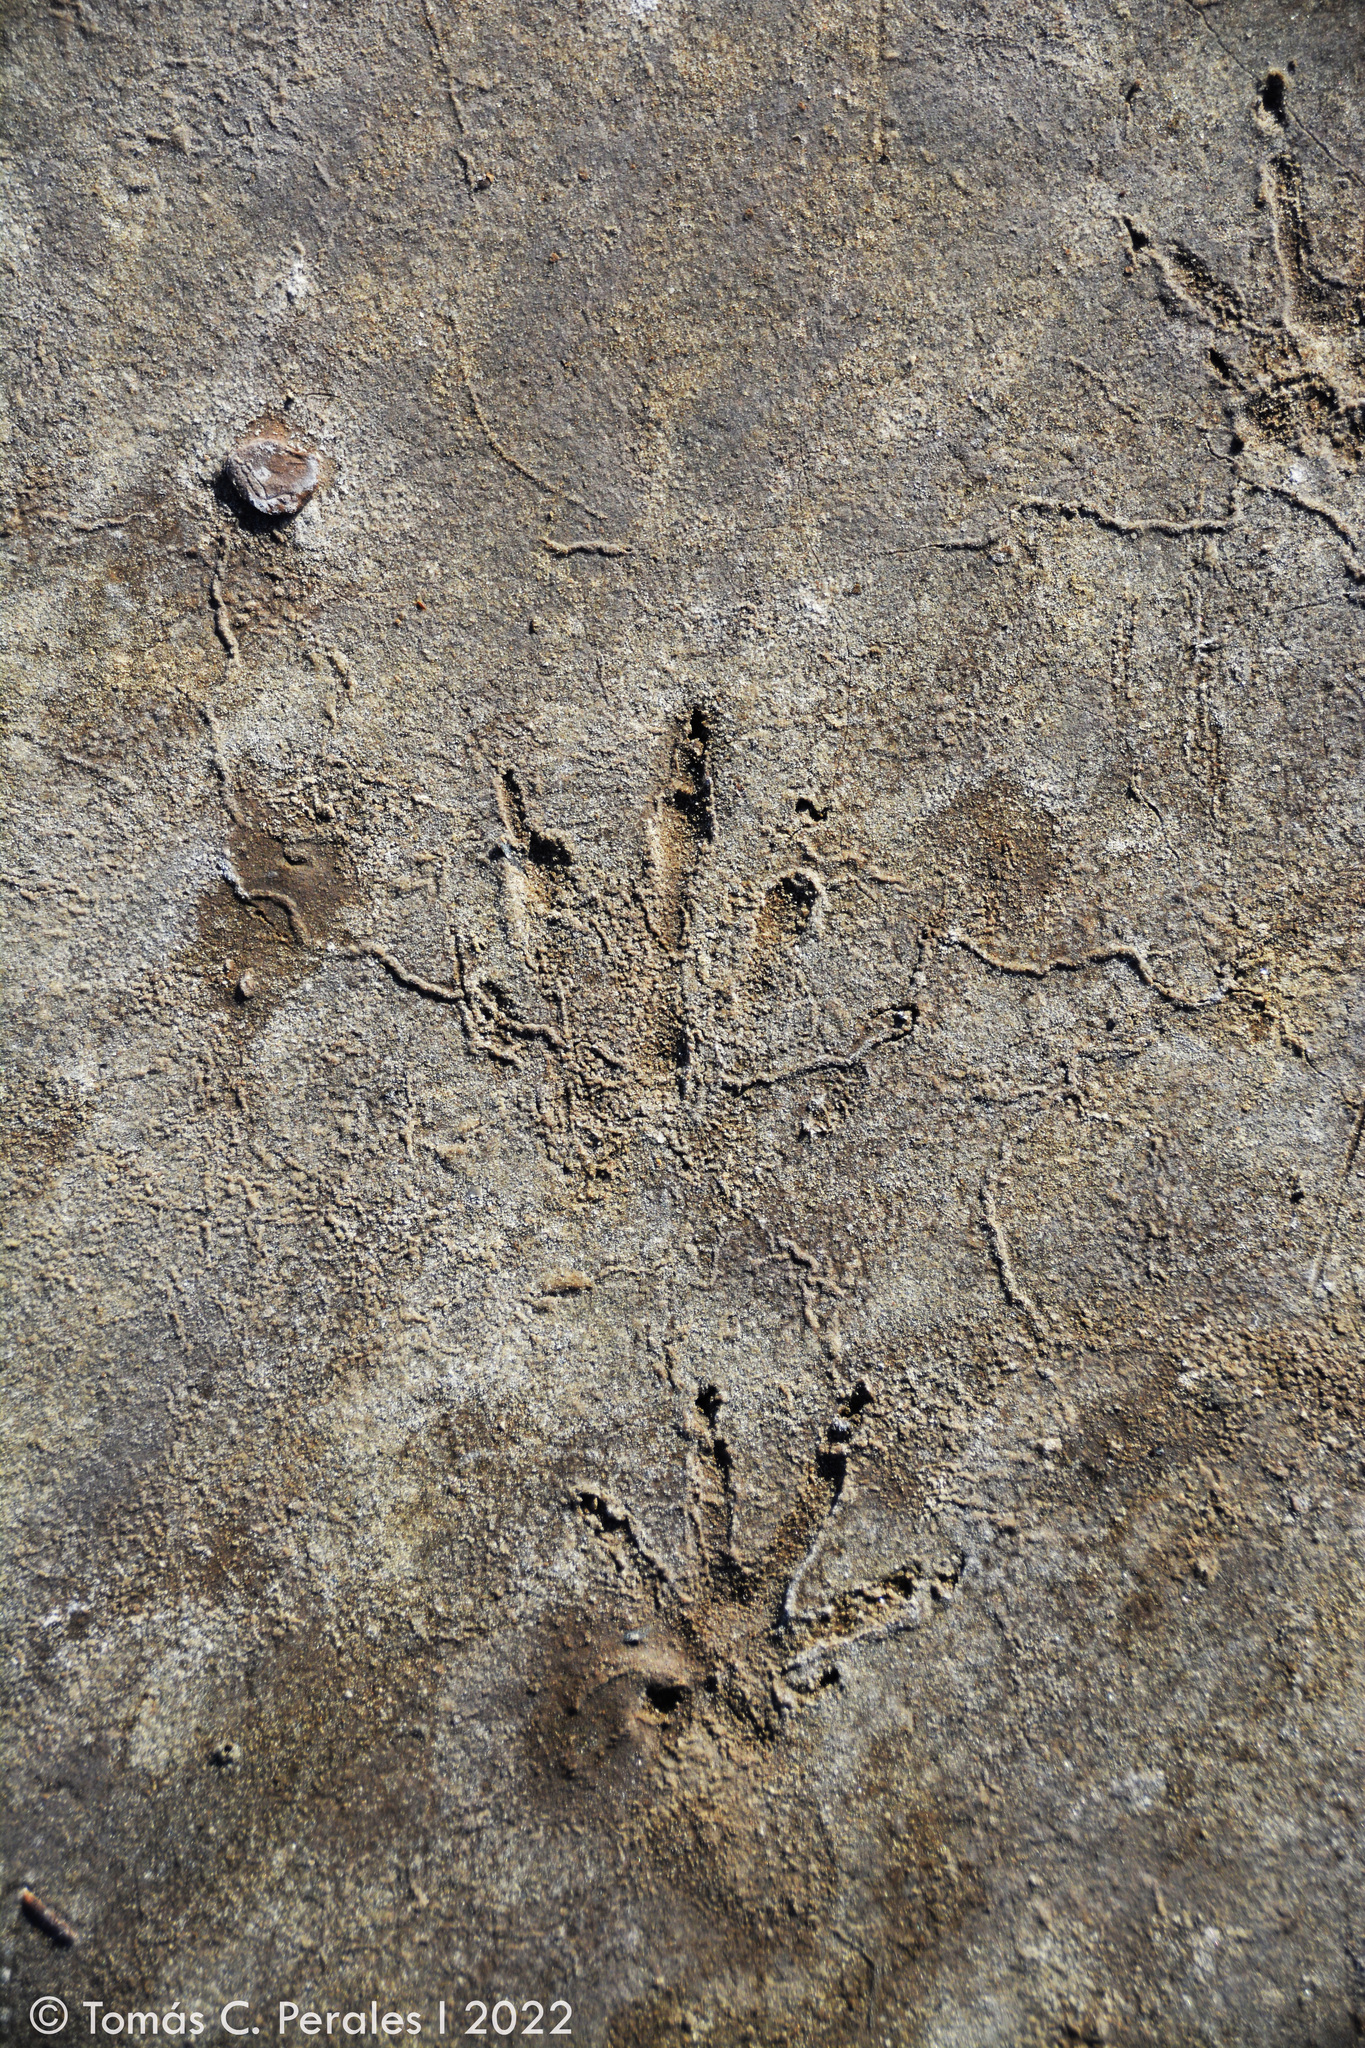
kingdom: Animalia
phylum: Chordata
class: Mammalia
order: Rodentia
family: Myocastoridae
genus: Myocastor
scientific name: Myocastor coypus
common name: Coypu
